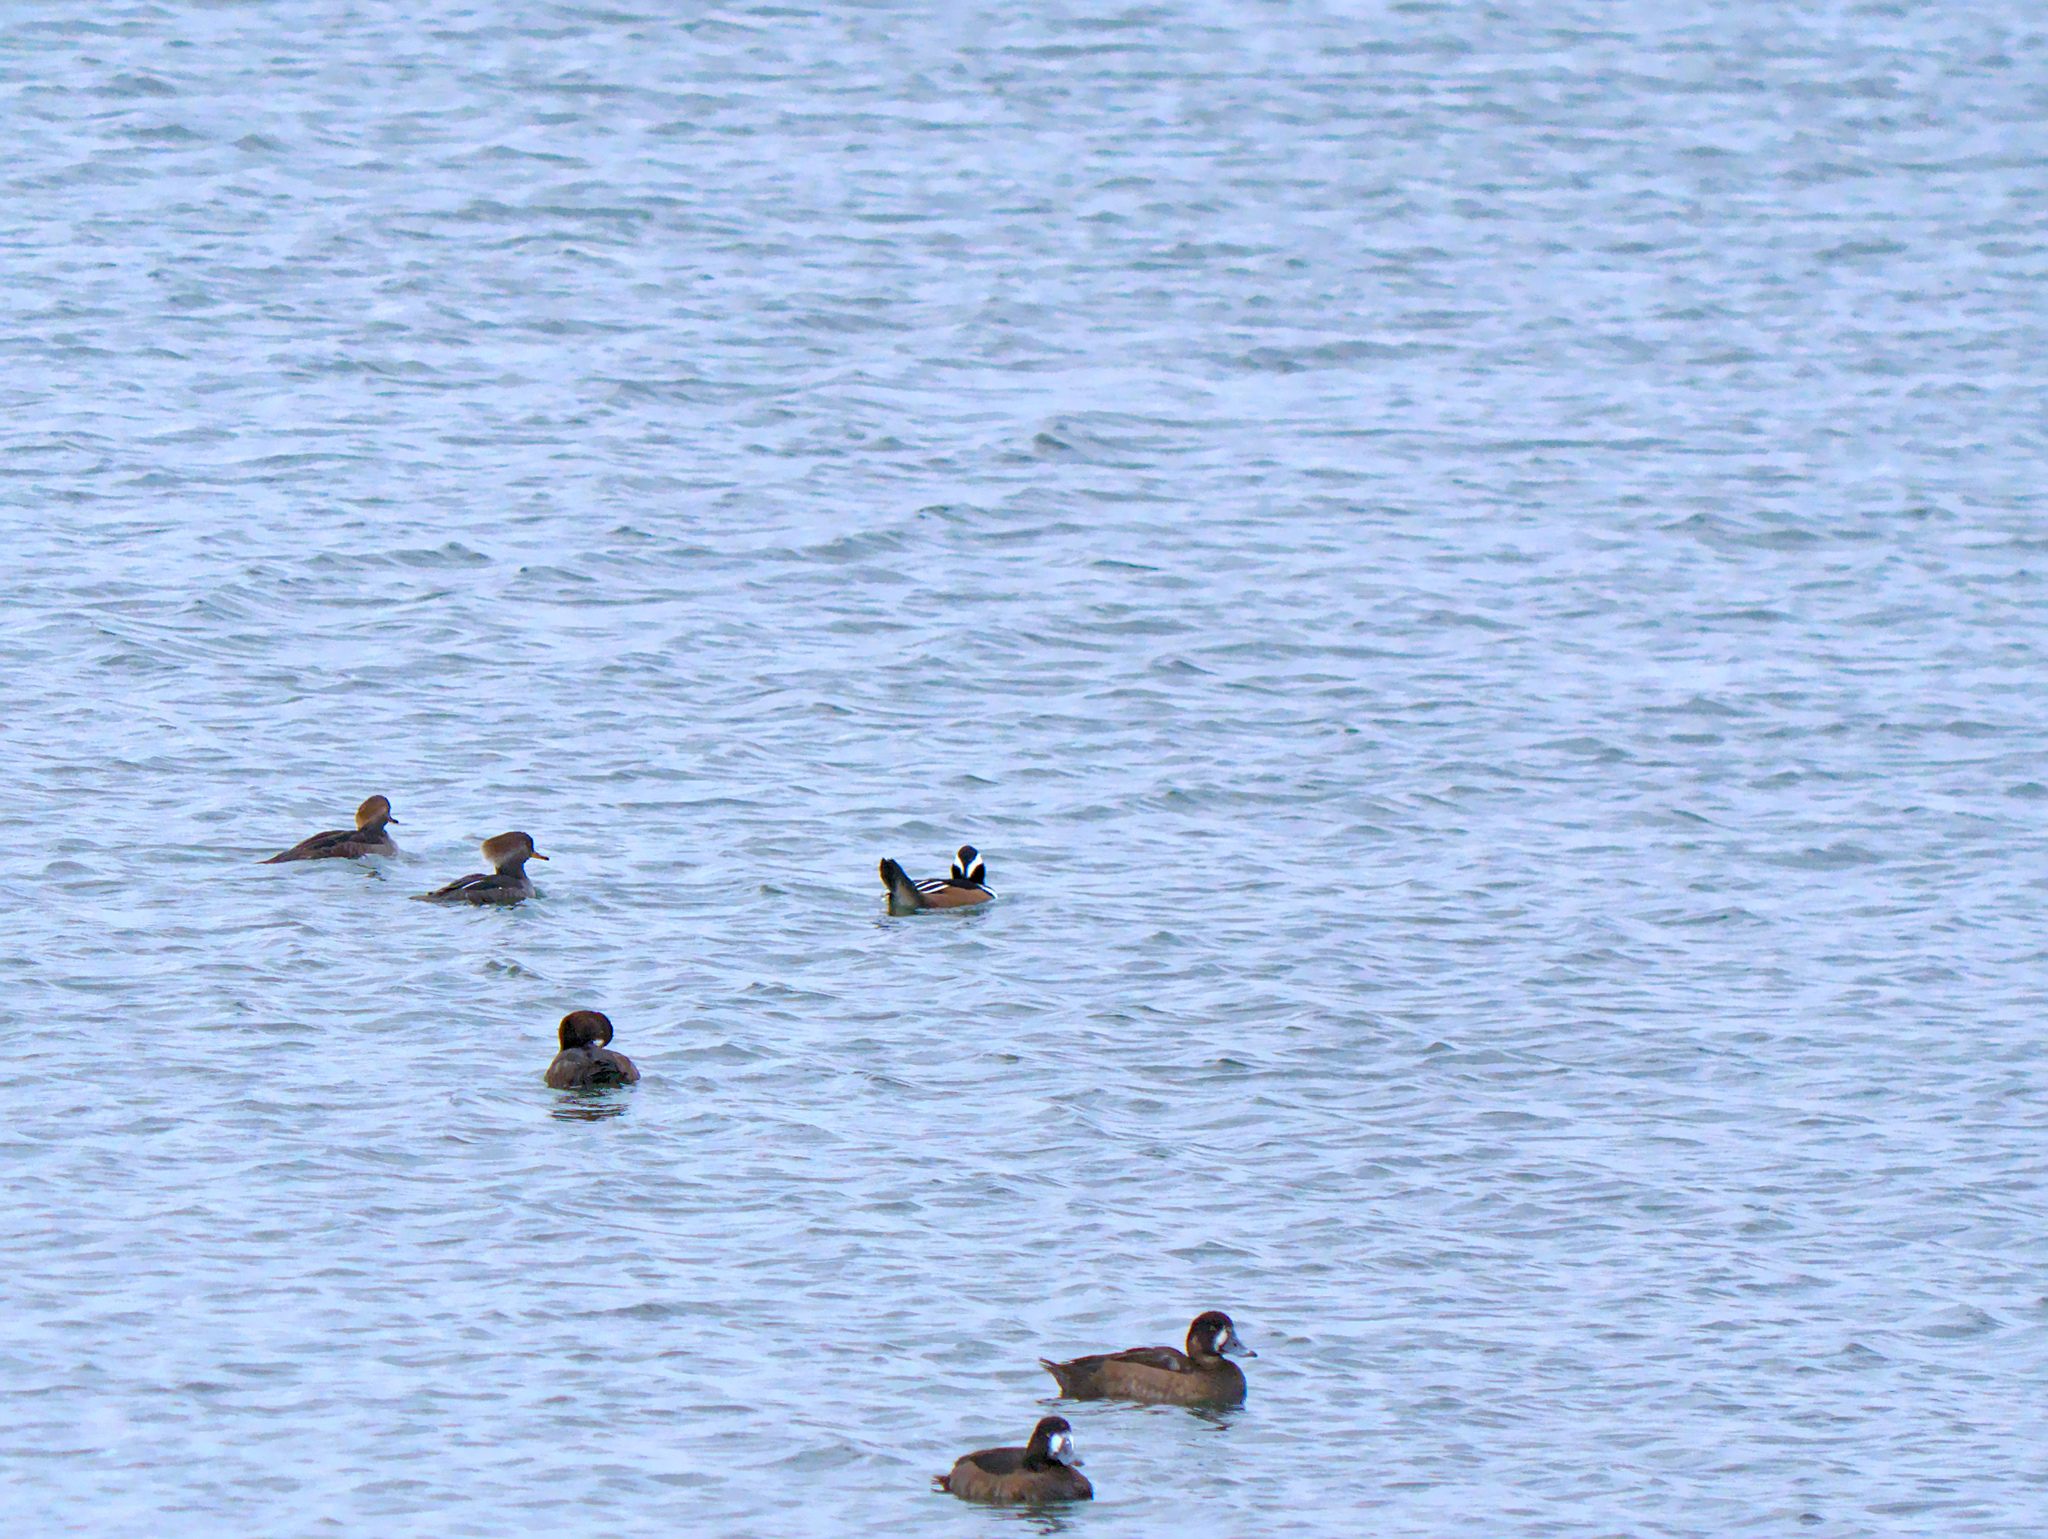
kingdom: Animalia
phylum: Chordata
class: Aves
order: Anseriformes
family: Anatidae
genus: Lophodytes
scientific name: Lophodytes cucullatus
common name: Hooded merganser
